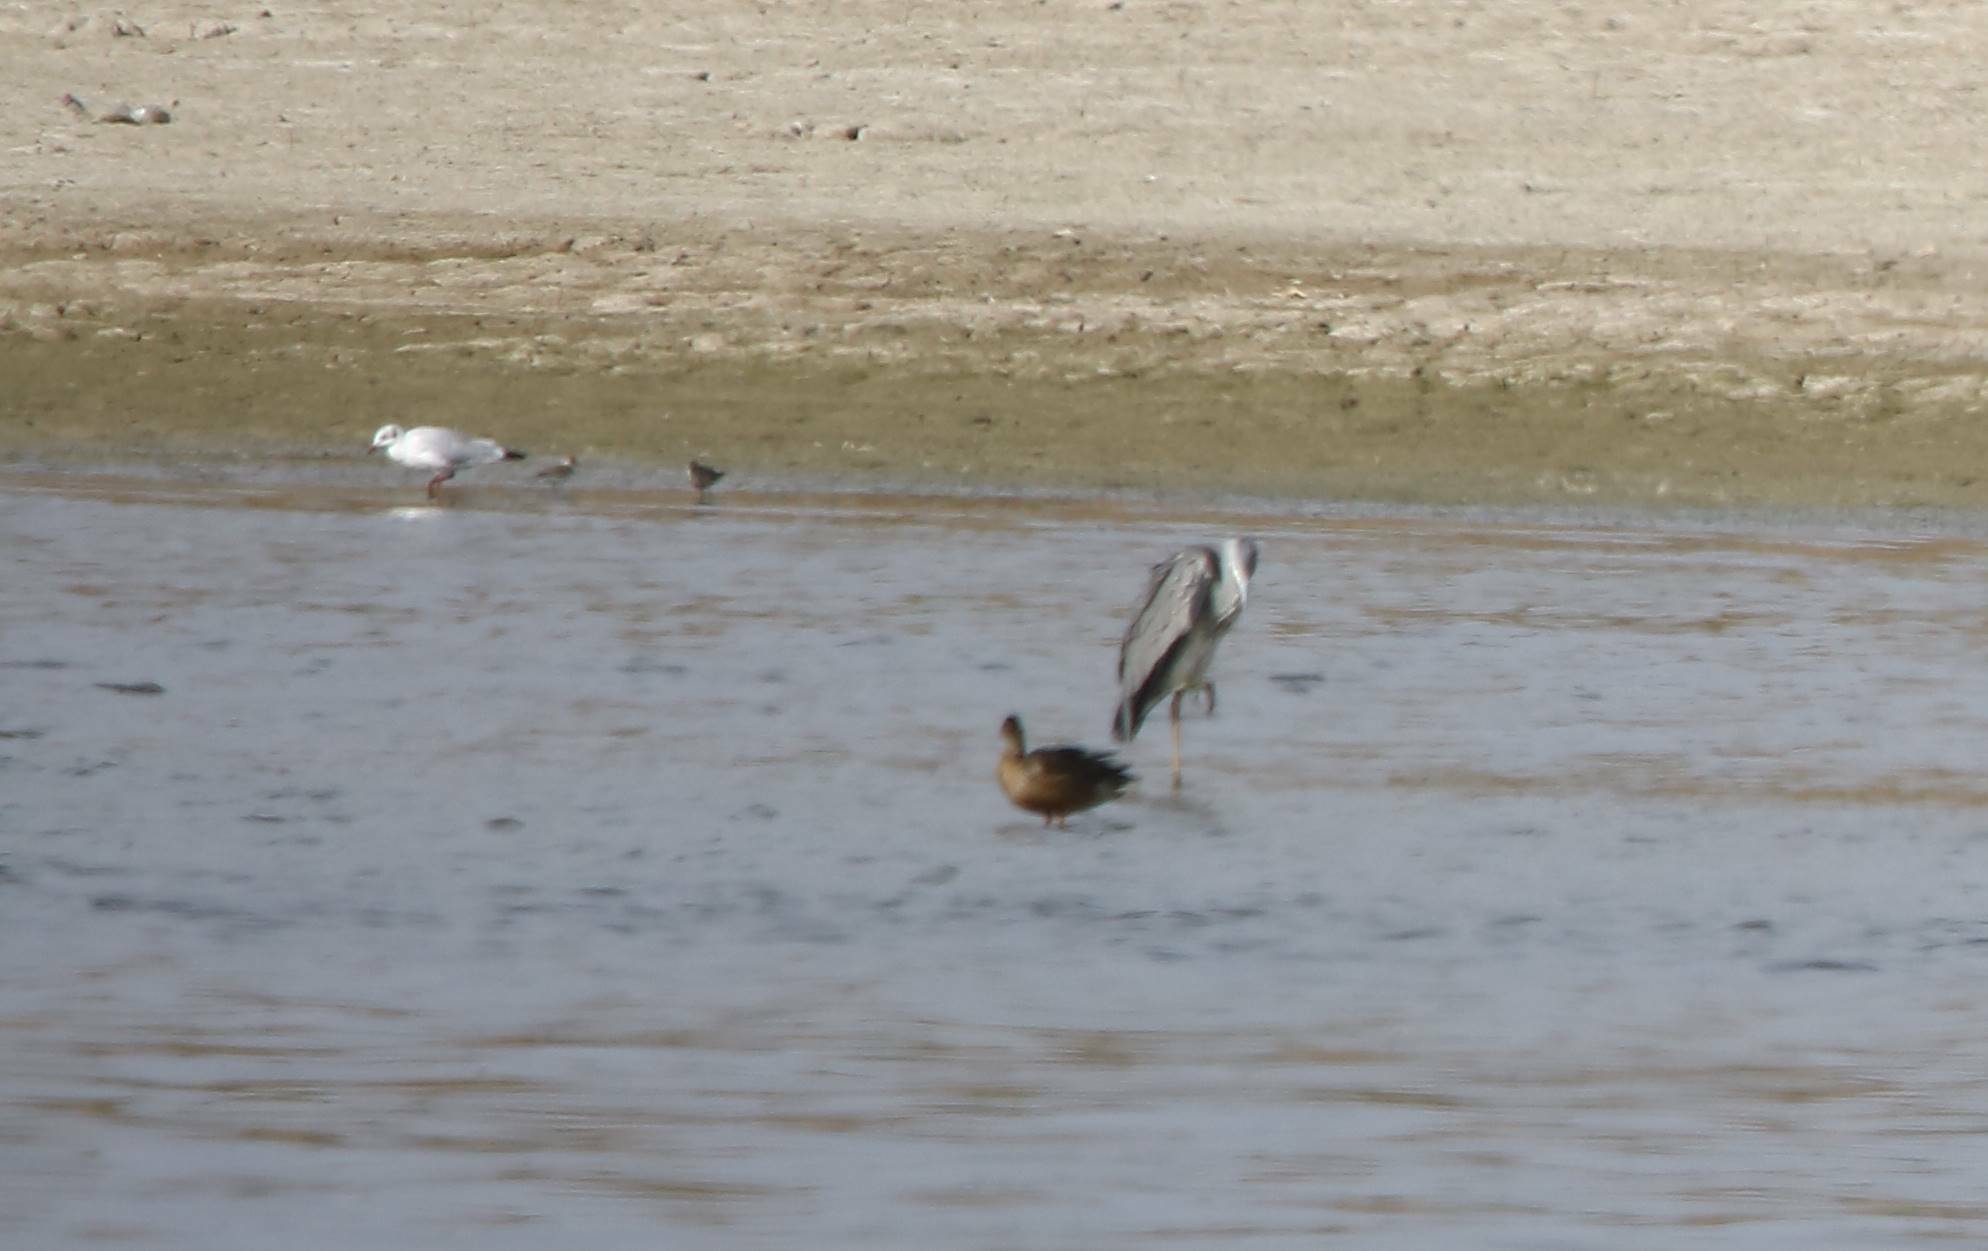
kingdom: Animalia
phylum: Chordata
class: Aves
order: Pelecaniformes
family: Ardeidae
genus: Ardea
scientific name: Ardea cinerea
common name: Grey heron
